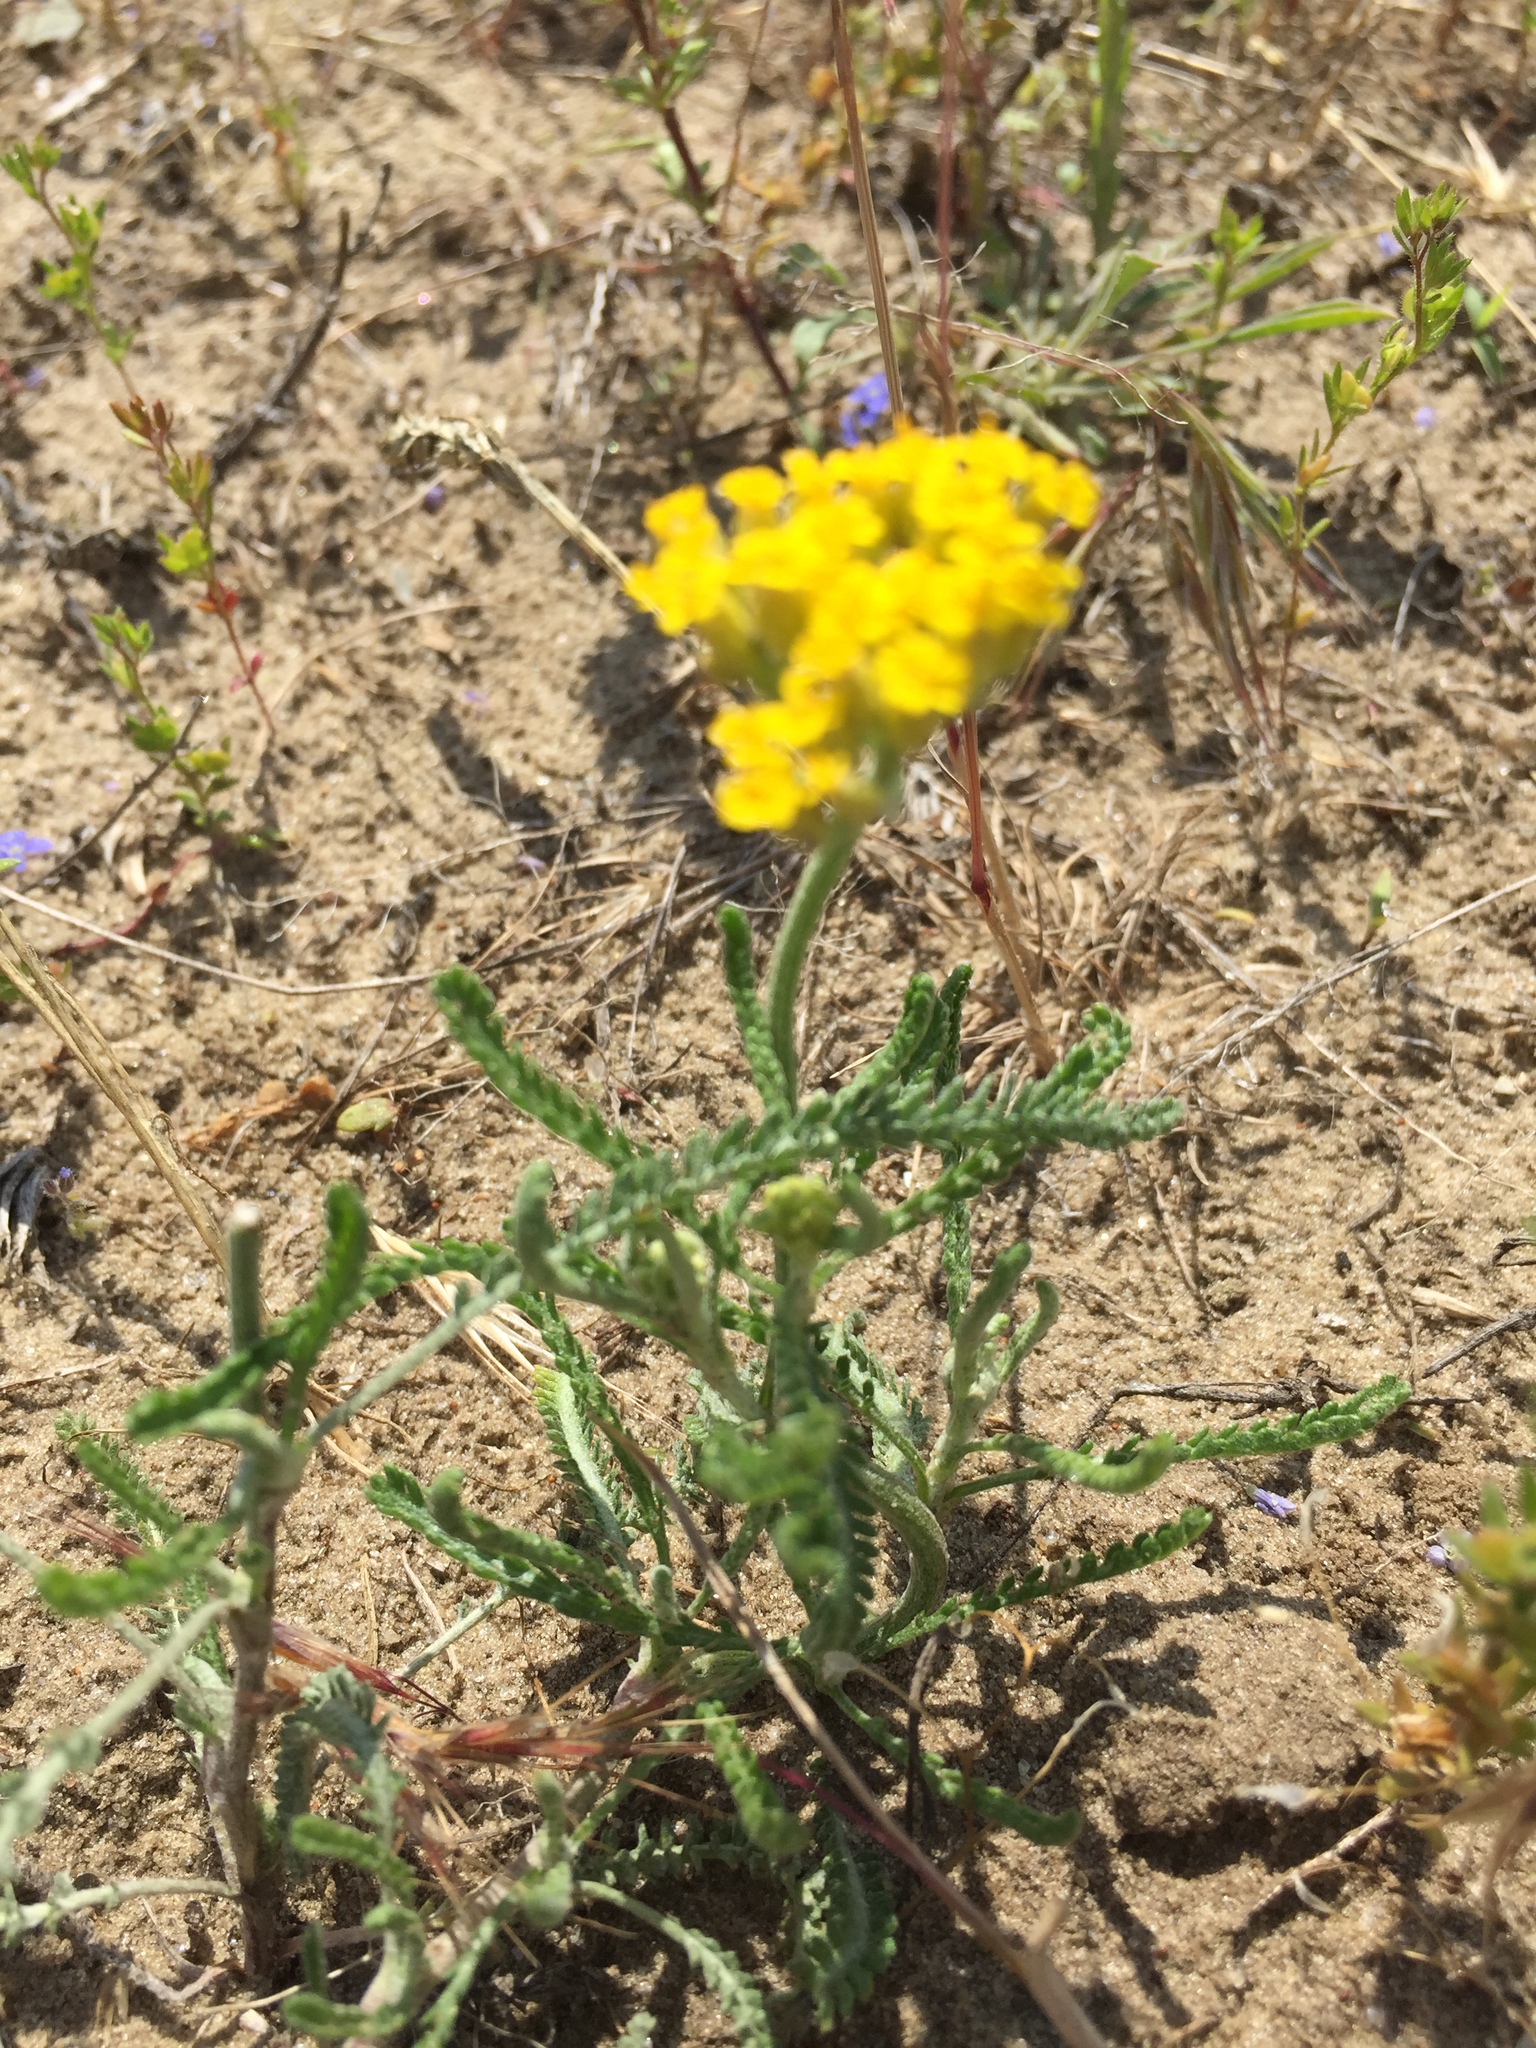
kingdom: Plantae
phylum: Tracheophyta
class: Magnoliopsida
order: Asterales
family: Asteraceae
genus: Achillea
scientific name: Achillea micrantha
